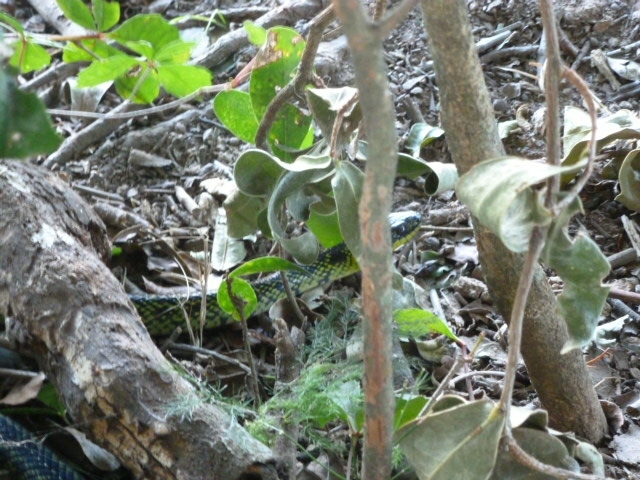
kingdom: Animalia
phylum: Chordata
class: Squamata
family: Colubridae
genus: Erythrolamprus
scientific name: Erythrolamprus poecilogyrus
